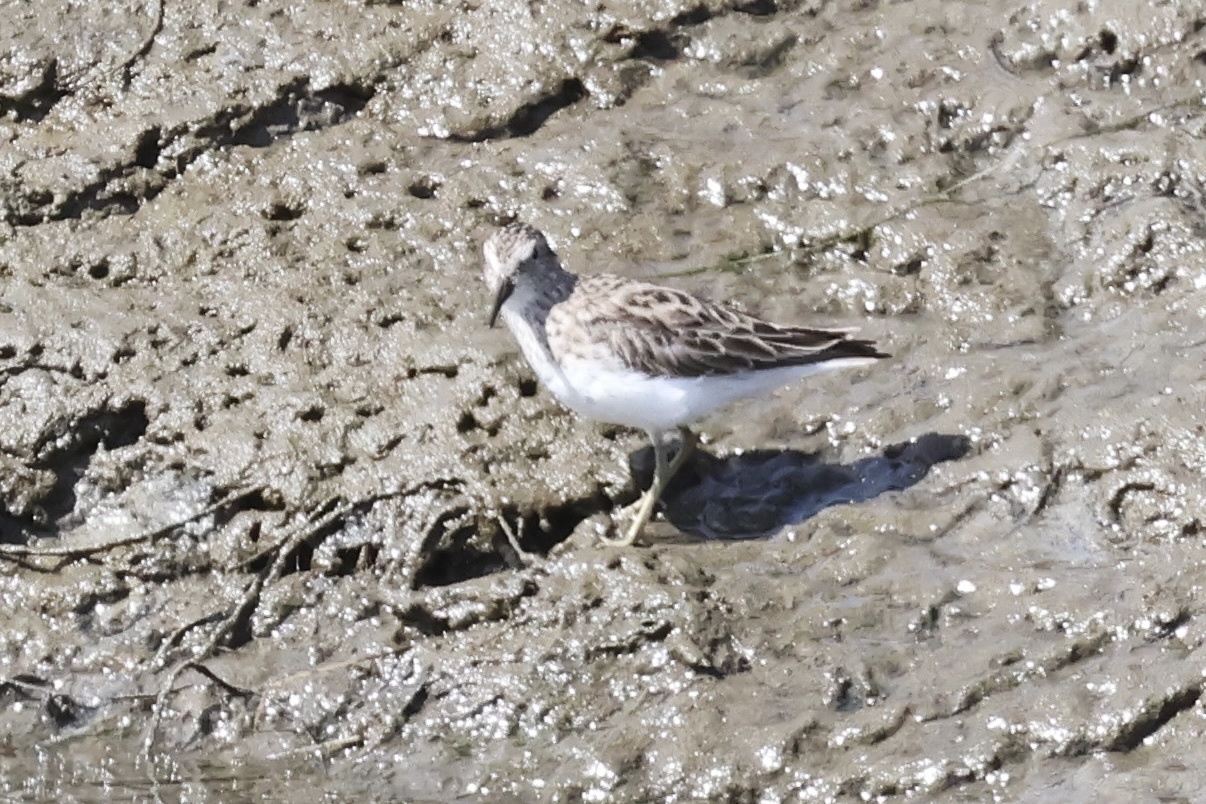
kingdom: Animalia
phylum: Chordata
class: Aves
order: Charadriiformes
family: Scolopacidae
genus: Calidris
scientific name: Calidris minutilla
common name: Least sandpiper
